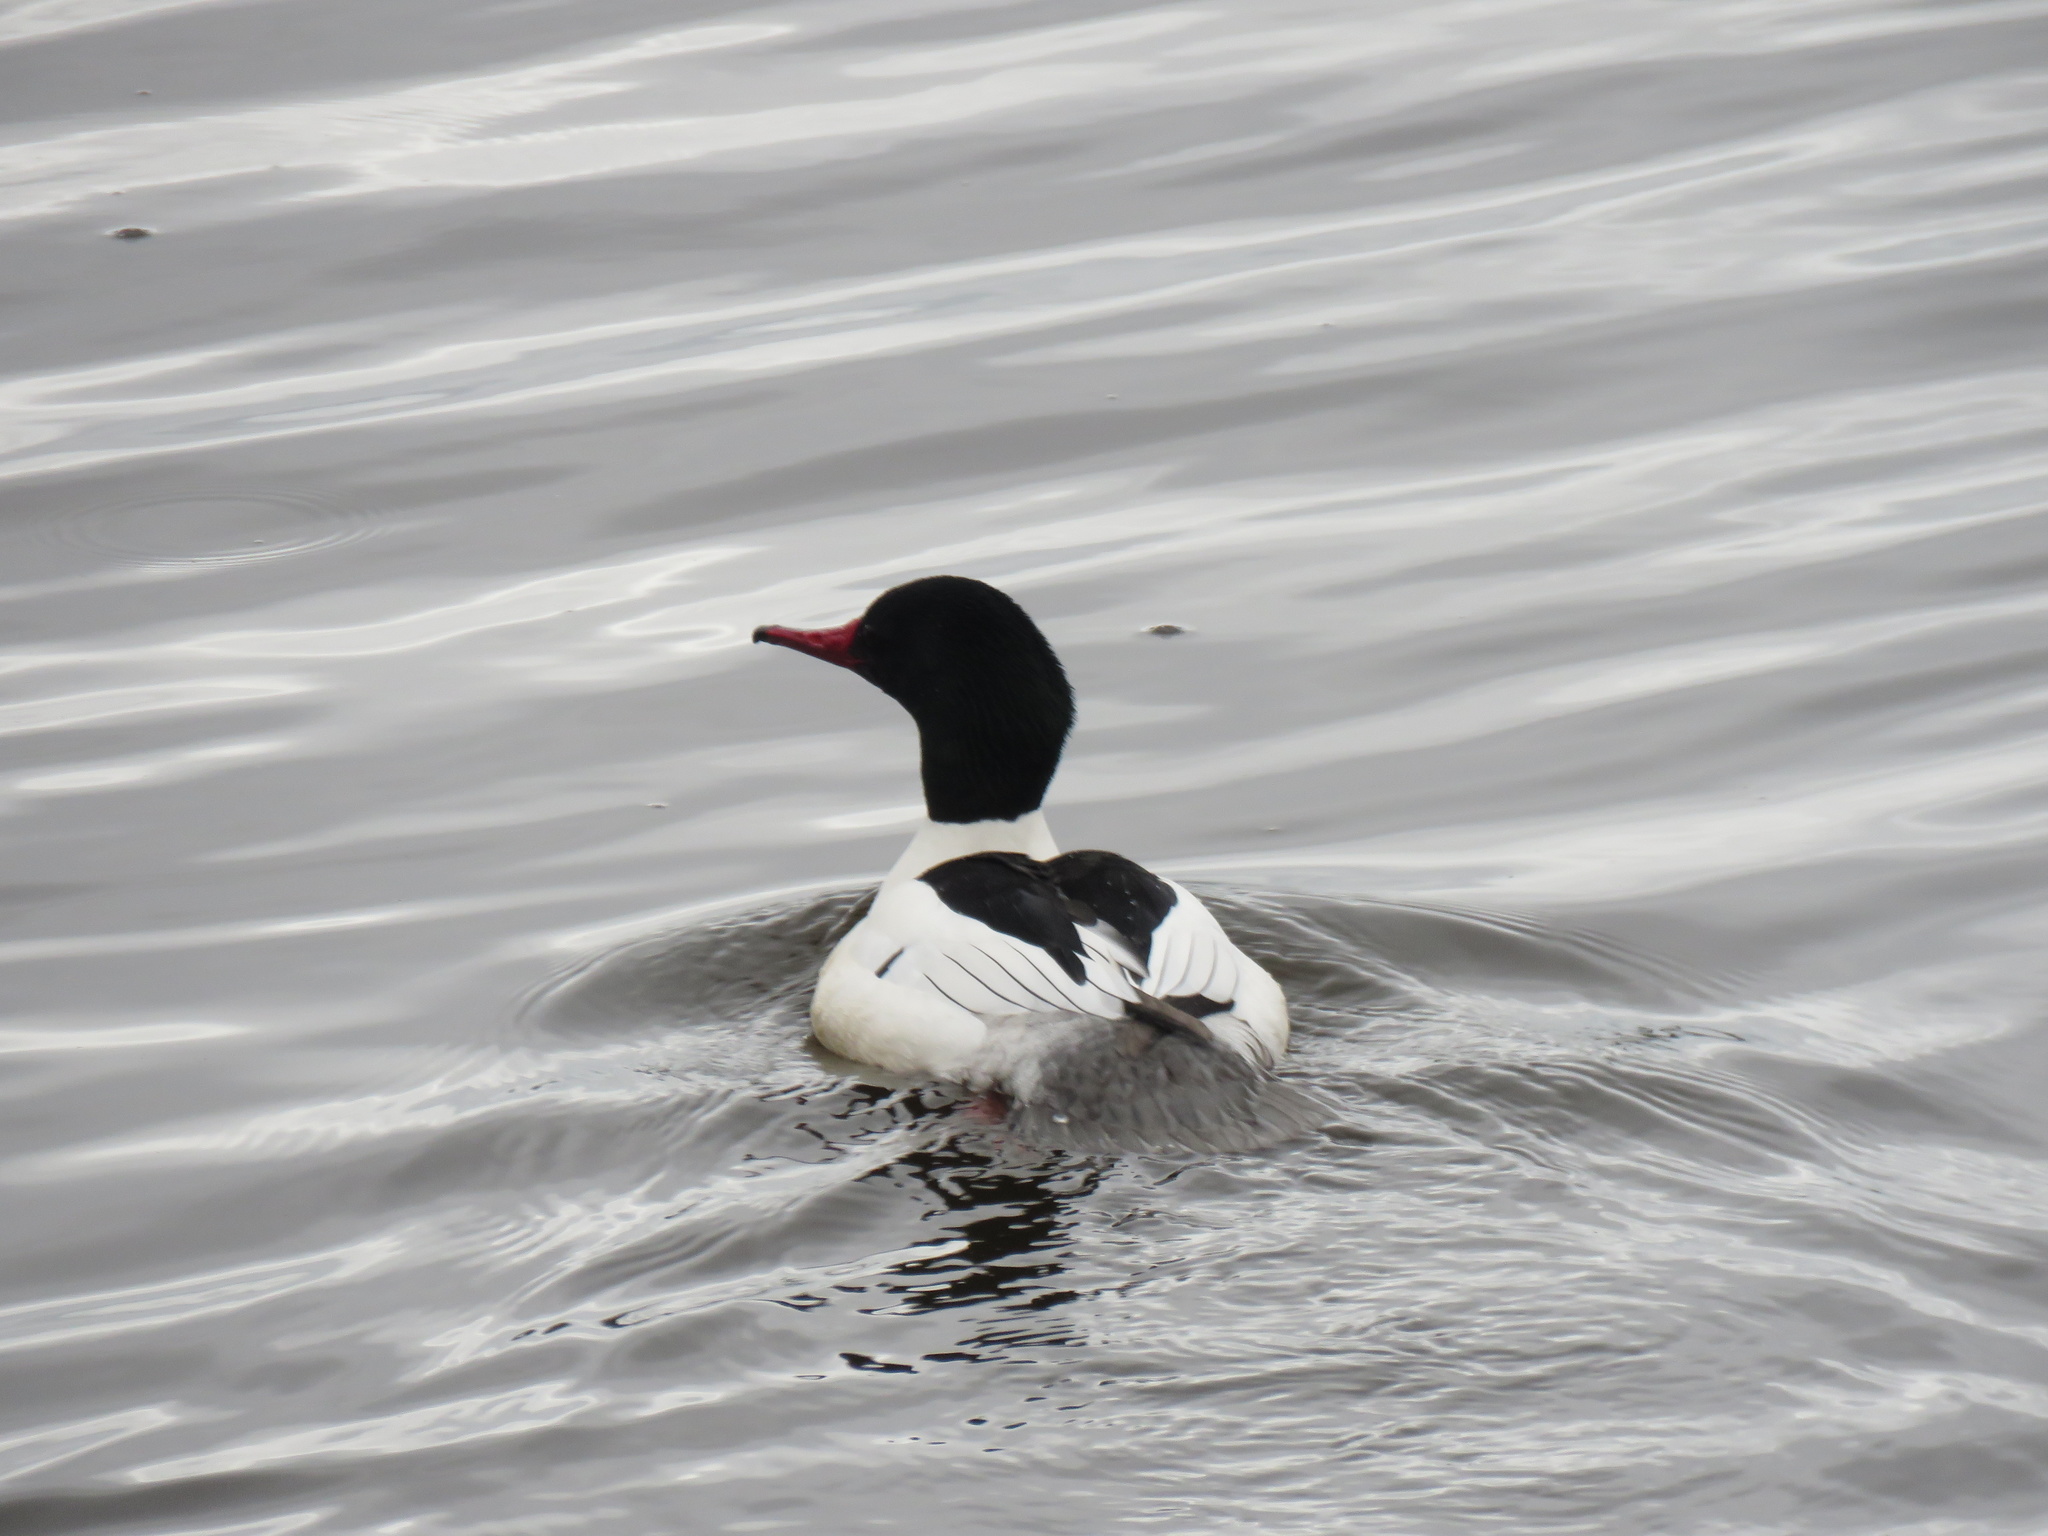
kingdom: Animalia
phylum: Chordata
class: Aves
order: Anseriformes
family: Anatidae
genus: Mergus
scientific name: Mergus merganser
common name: Common merganser
